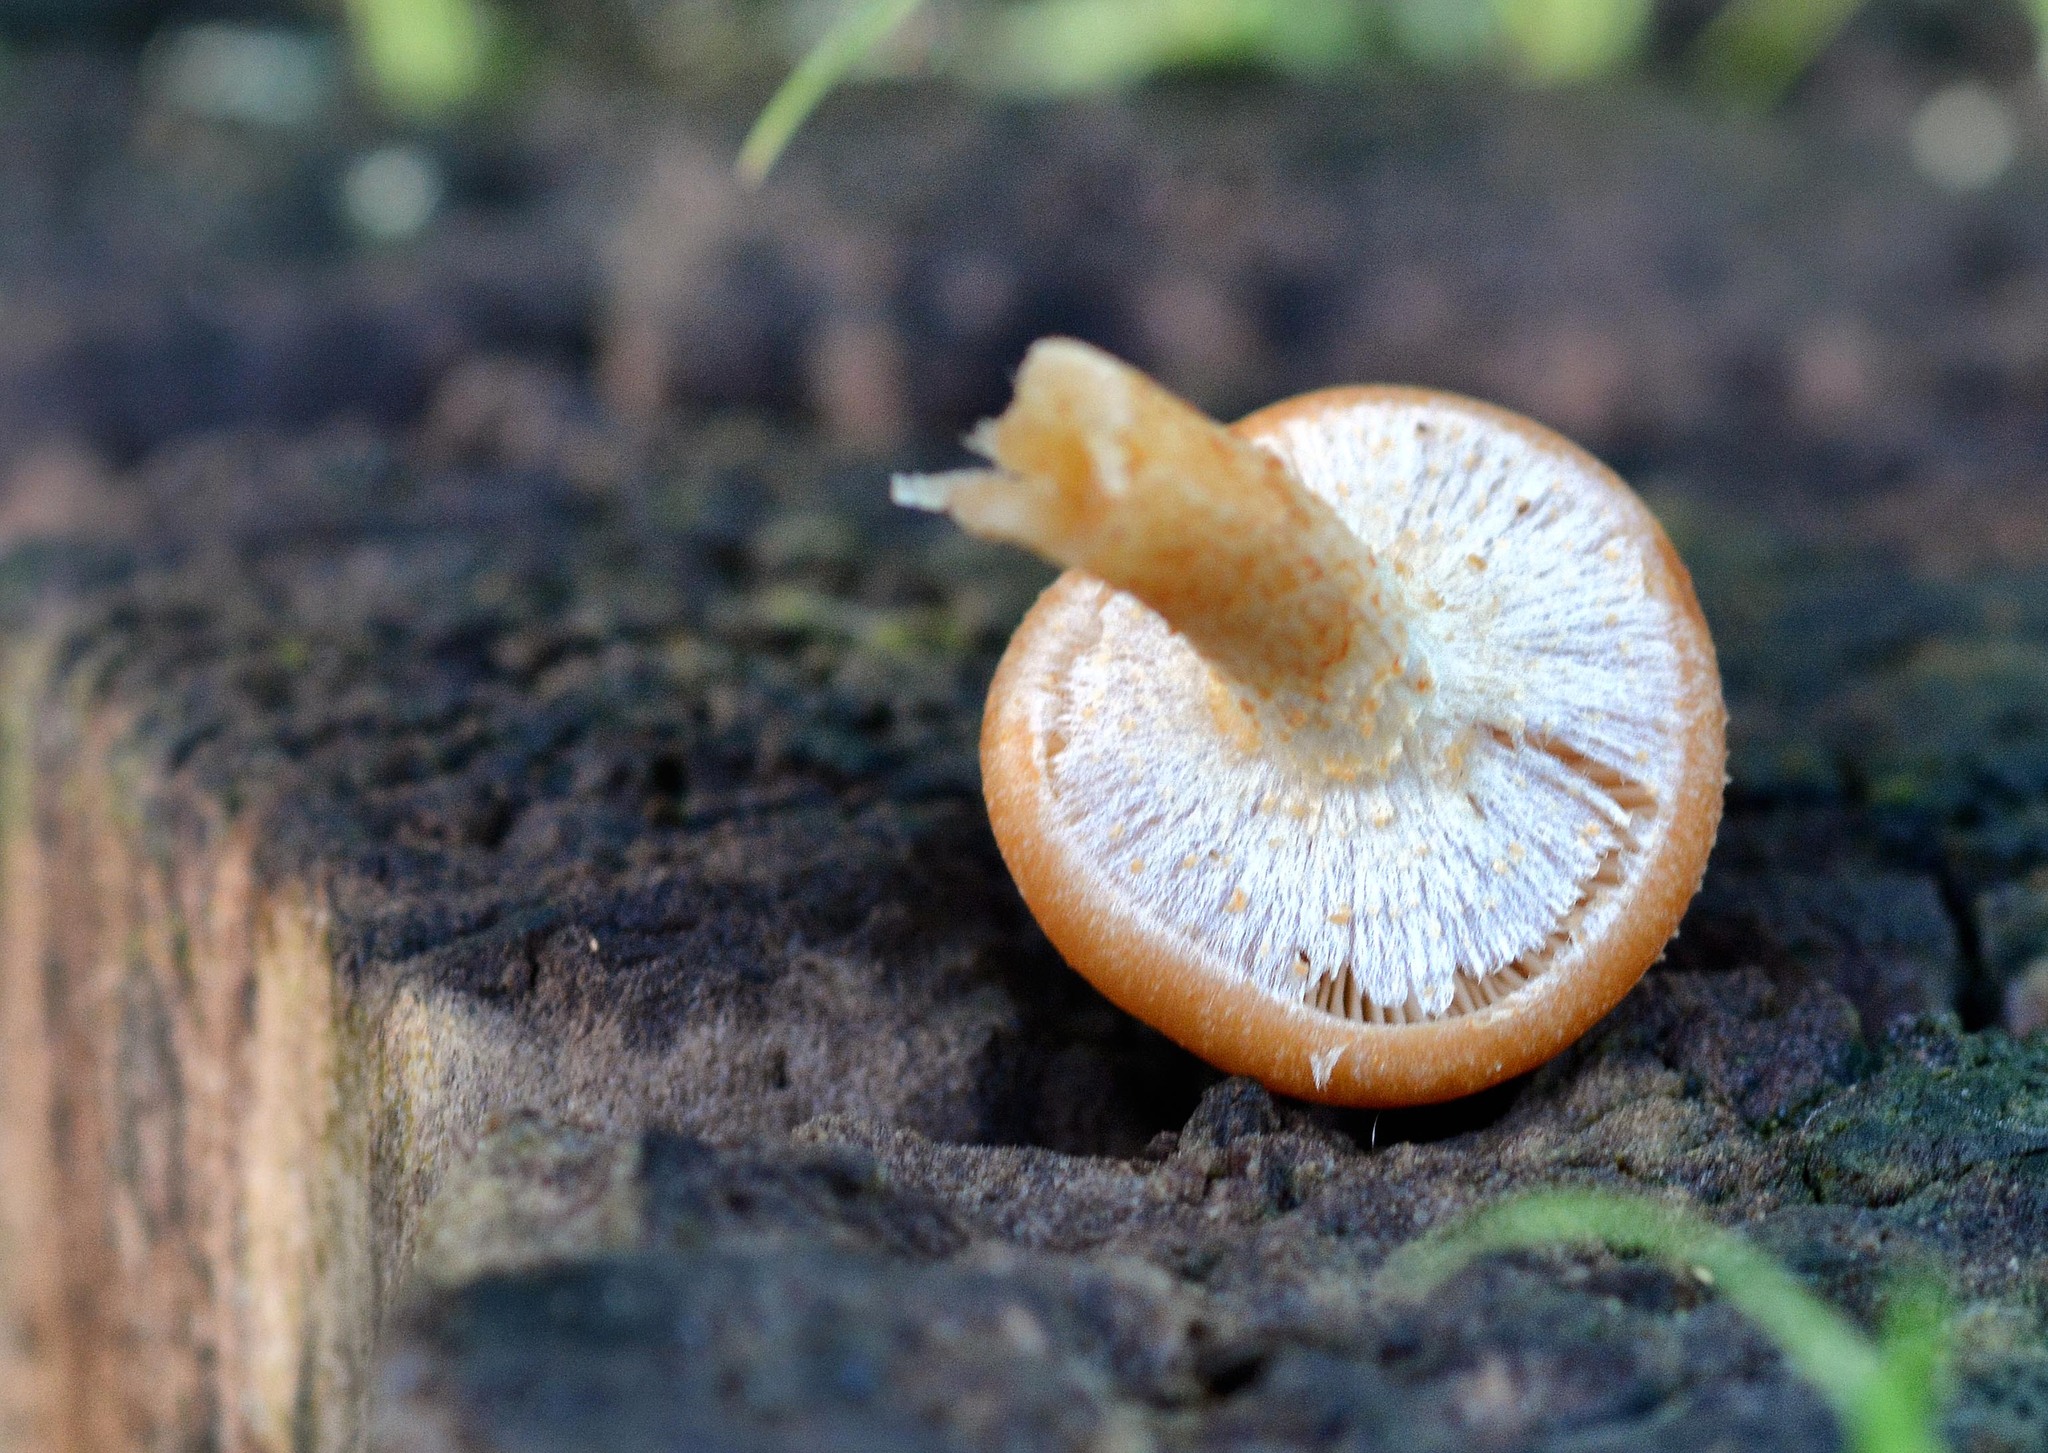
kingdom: Fungi
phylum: Basidiomycota
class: Agaricomycetes
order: Agaricales
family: Strophariaceae
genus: Kuehneromyces
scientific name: Kuehneromyces mutabilis
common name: Sheathed woodtuft
